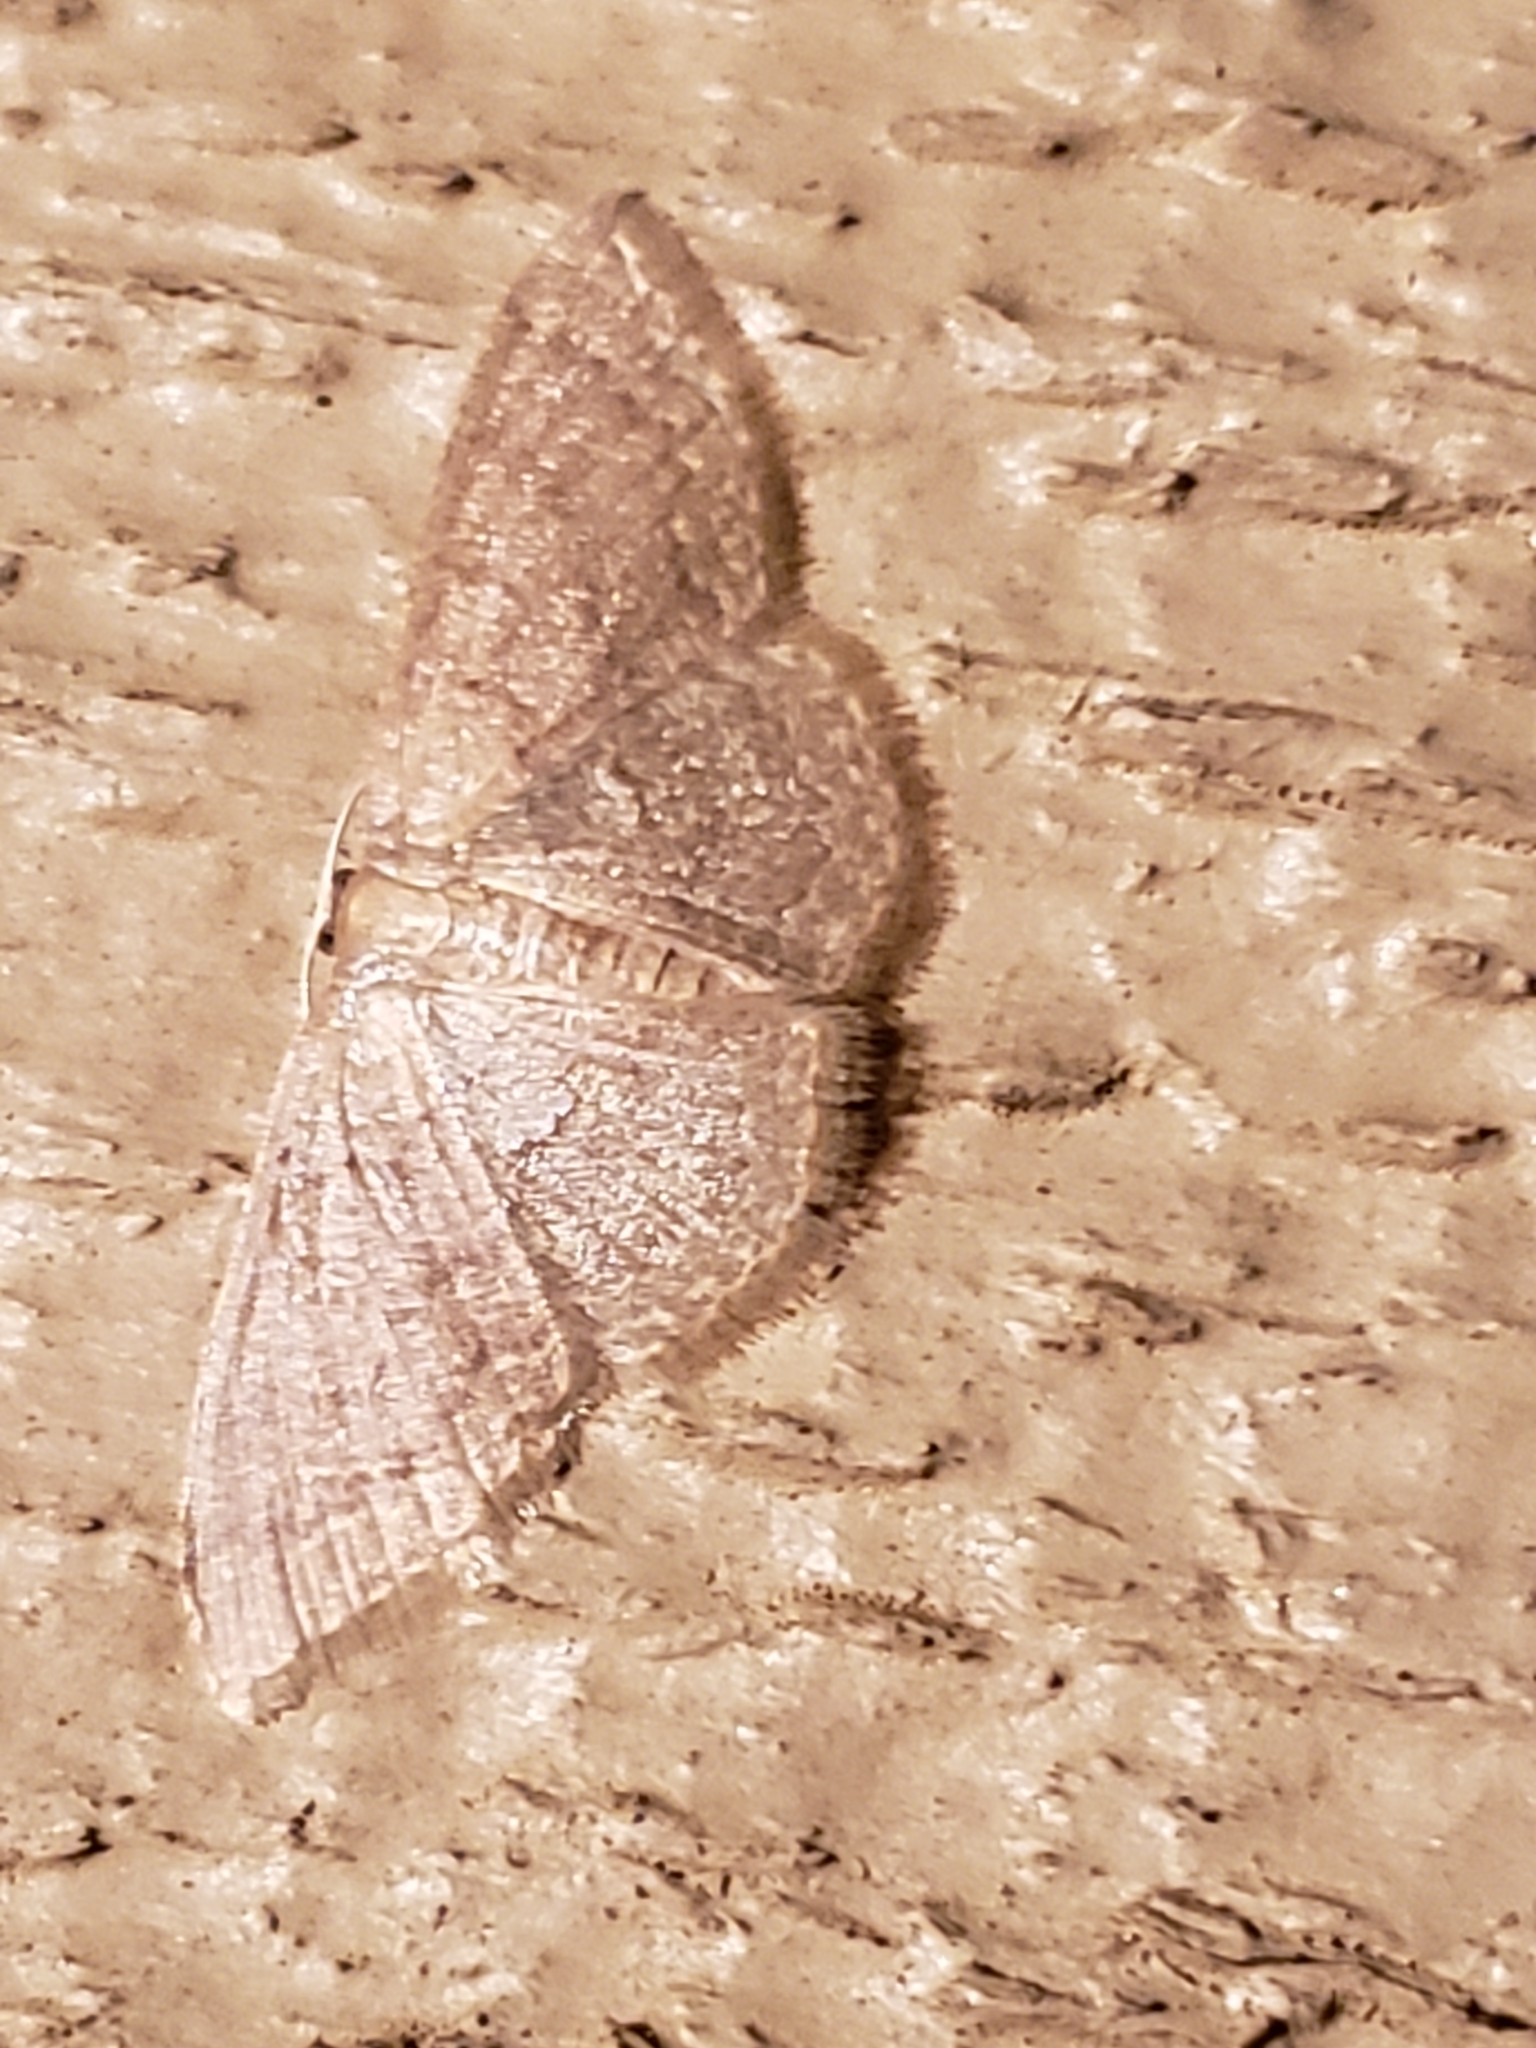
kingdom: Animalia
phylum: Arthropoda
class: Insecta
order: Lepidoptera
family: Geometridae
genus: Pleuroprucha
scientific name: Pleuroprucha insulsaria
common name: Common tan wave
